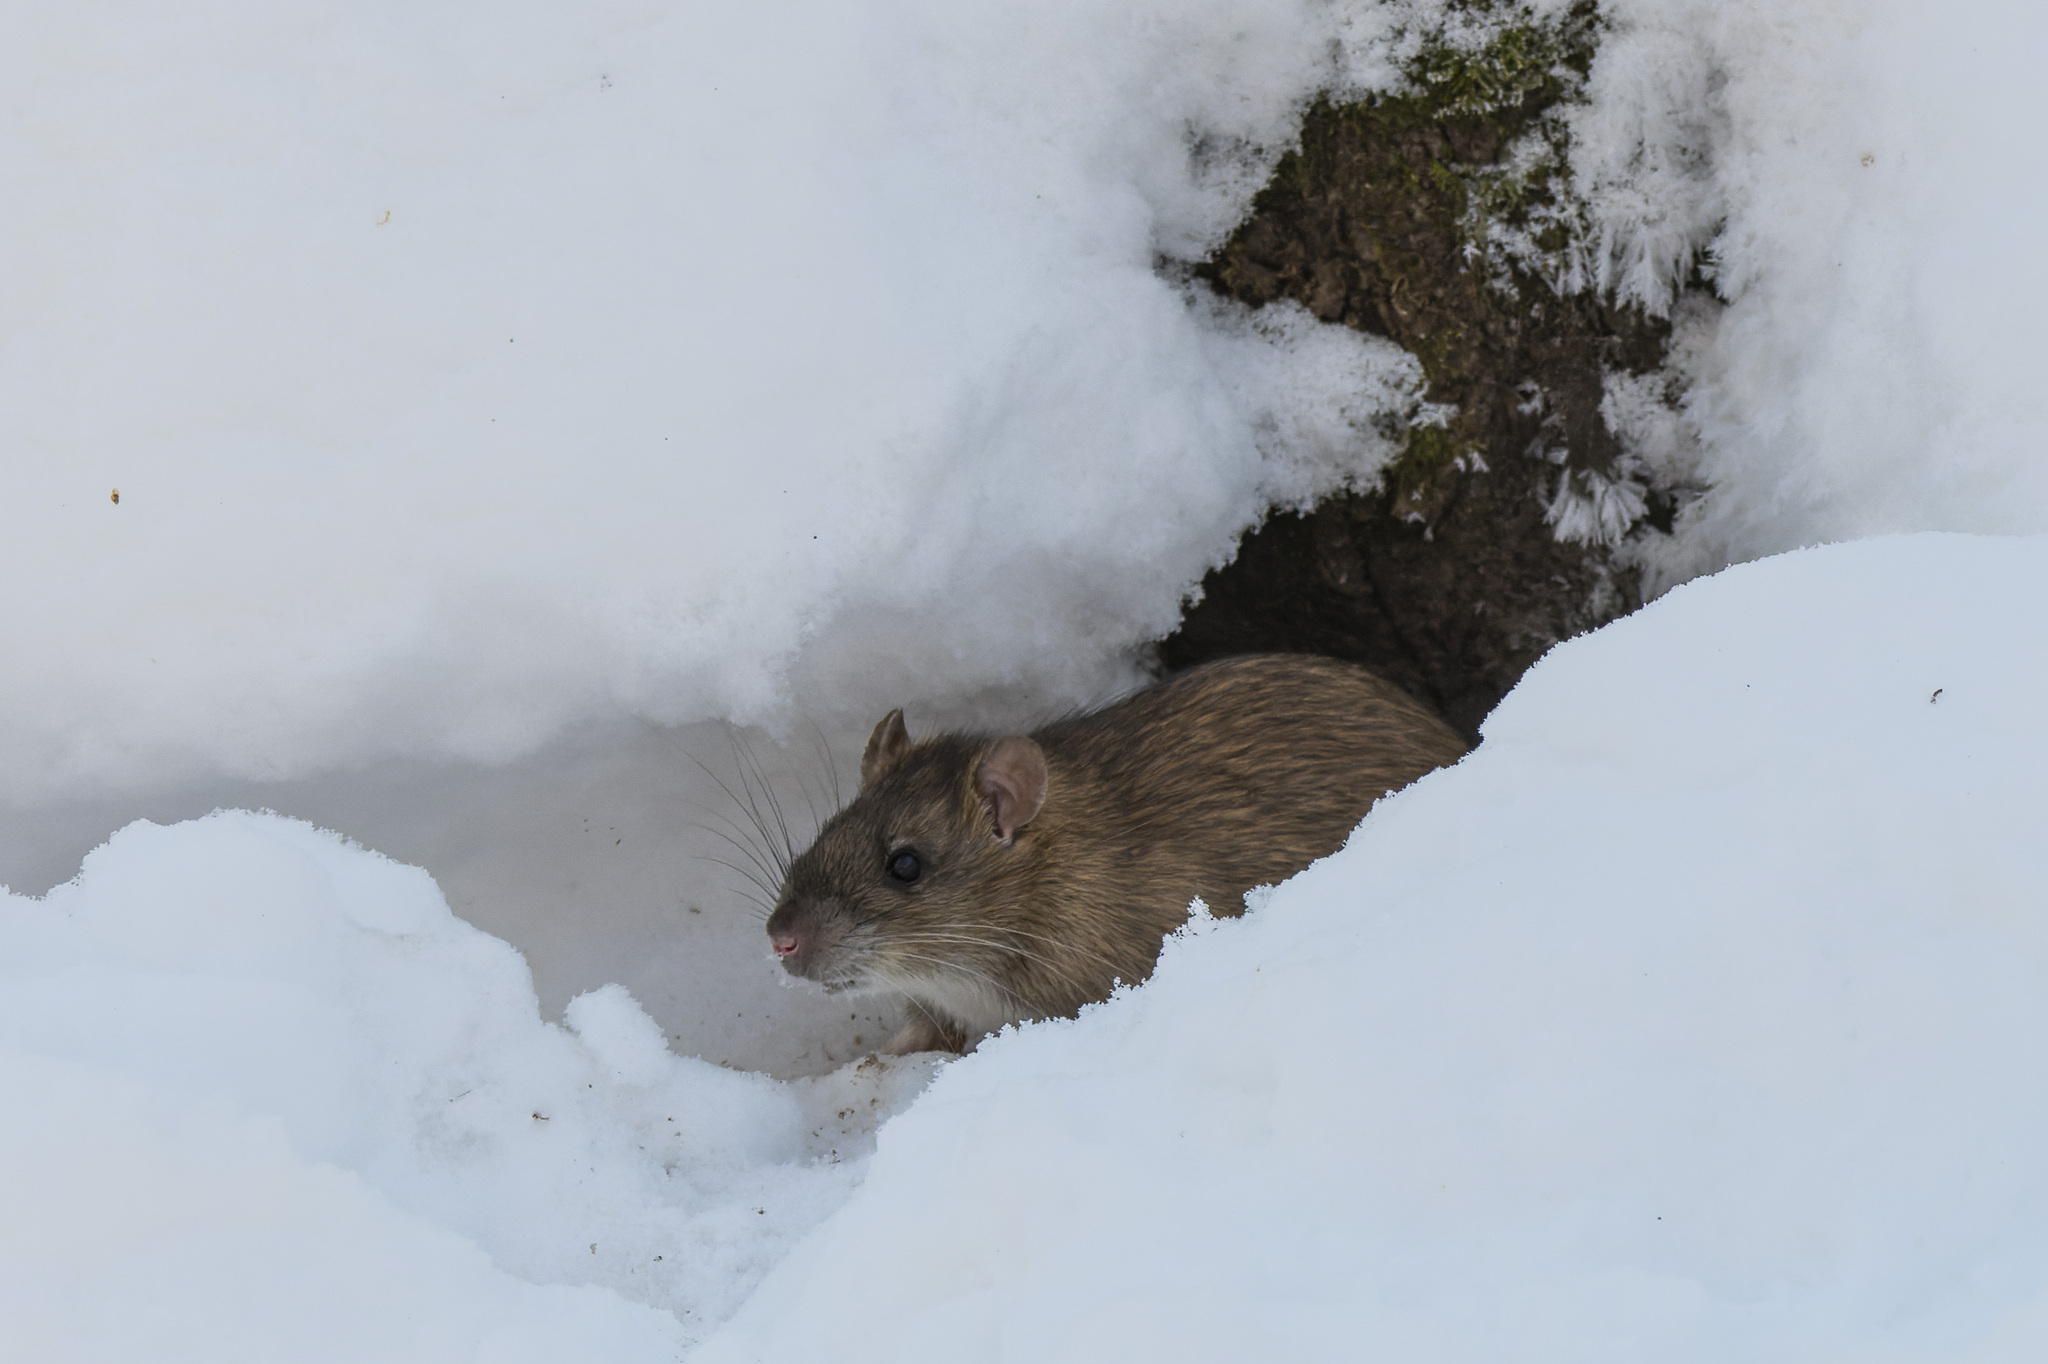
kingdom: Animalia
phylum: Chordata
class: Mammalia
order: Rodentia
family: Muridae
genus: Rattus
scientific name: Rattus norvegicus
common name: Brown rat
